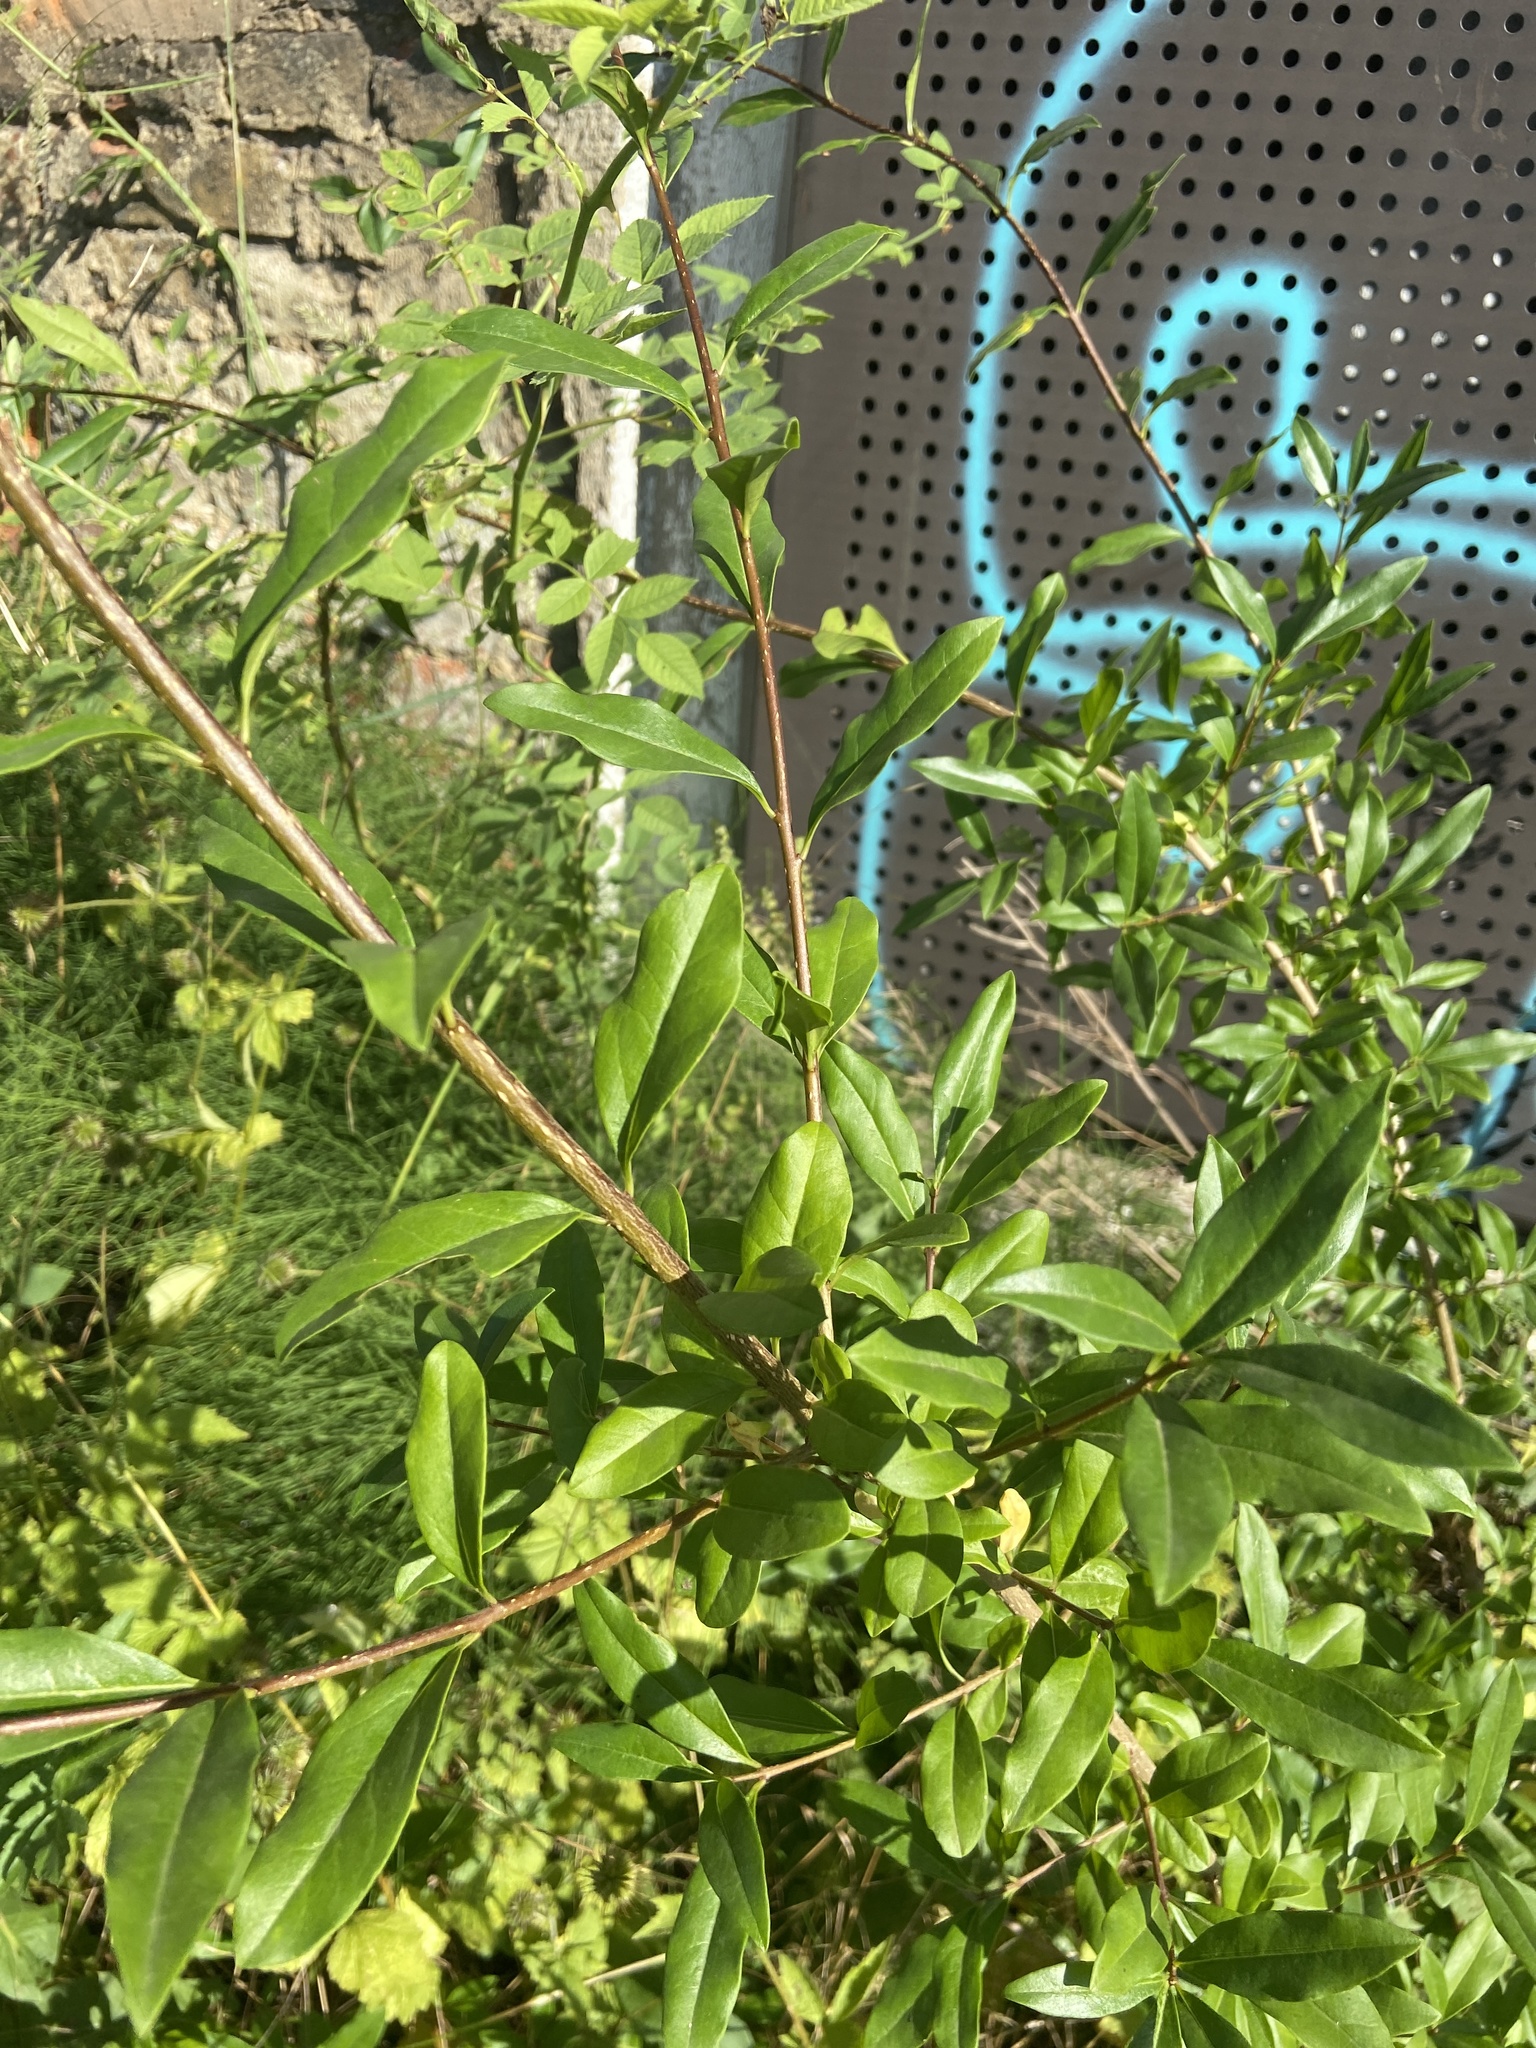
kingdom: Plantae
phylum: Tracheophyta
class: Magnoliopsida
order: Lamiales
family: Oleaceae
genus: Ligustrum
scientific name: Ligustrum vulgare
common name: Wild privet
